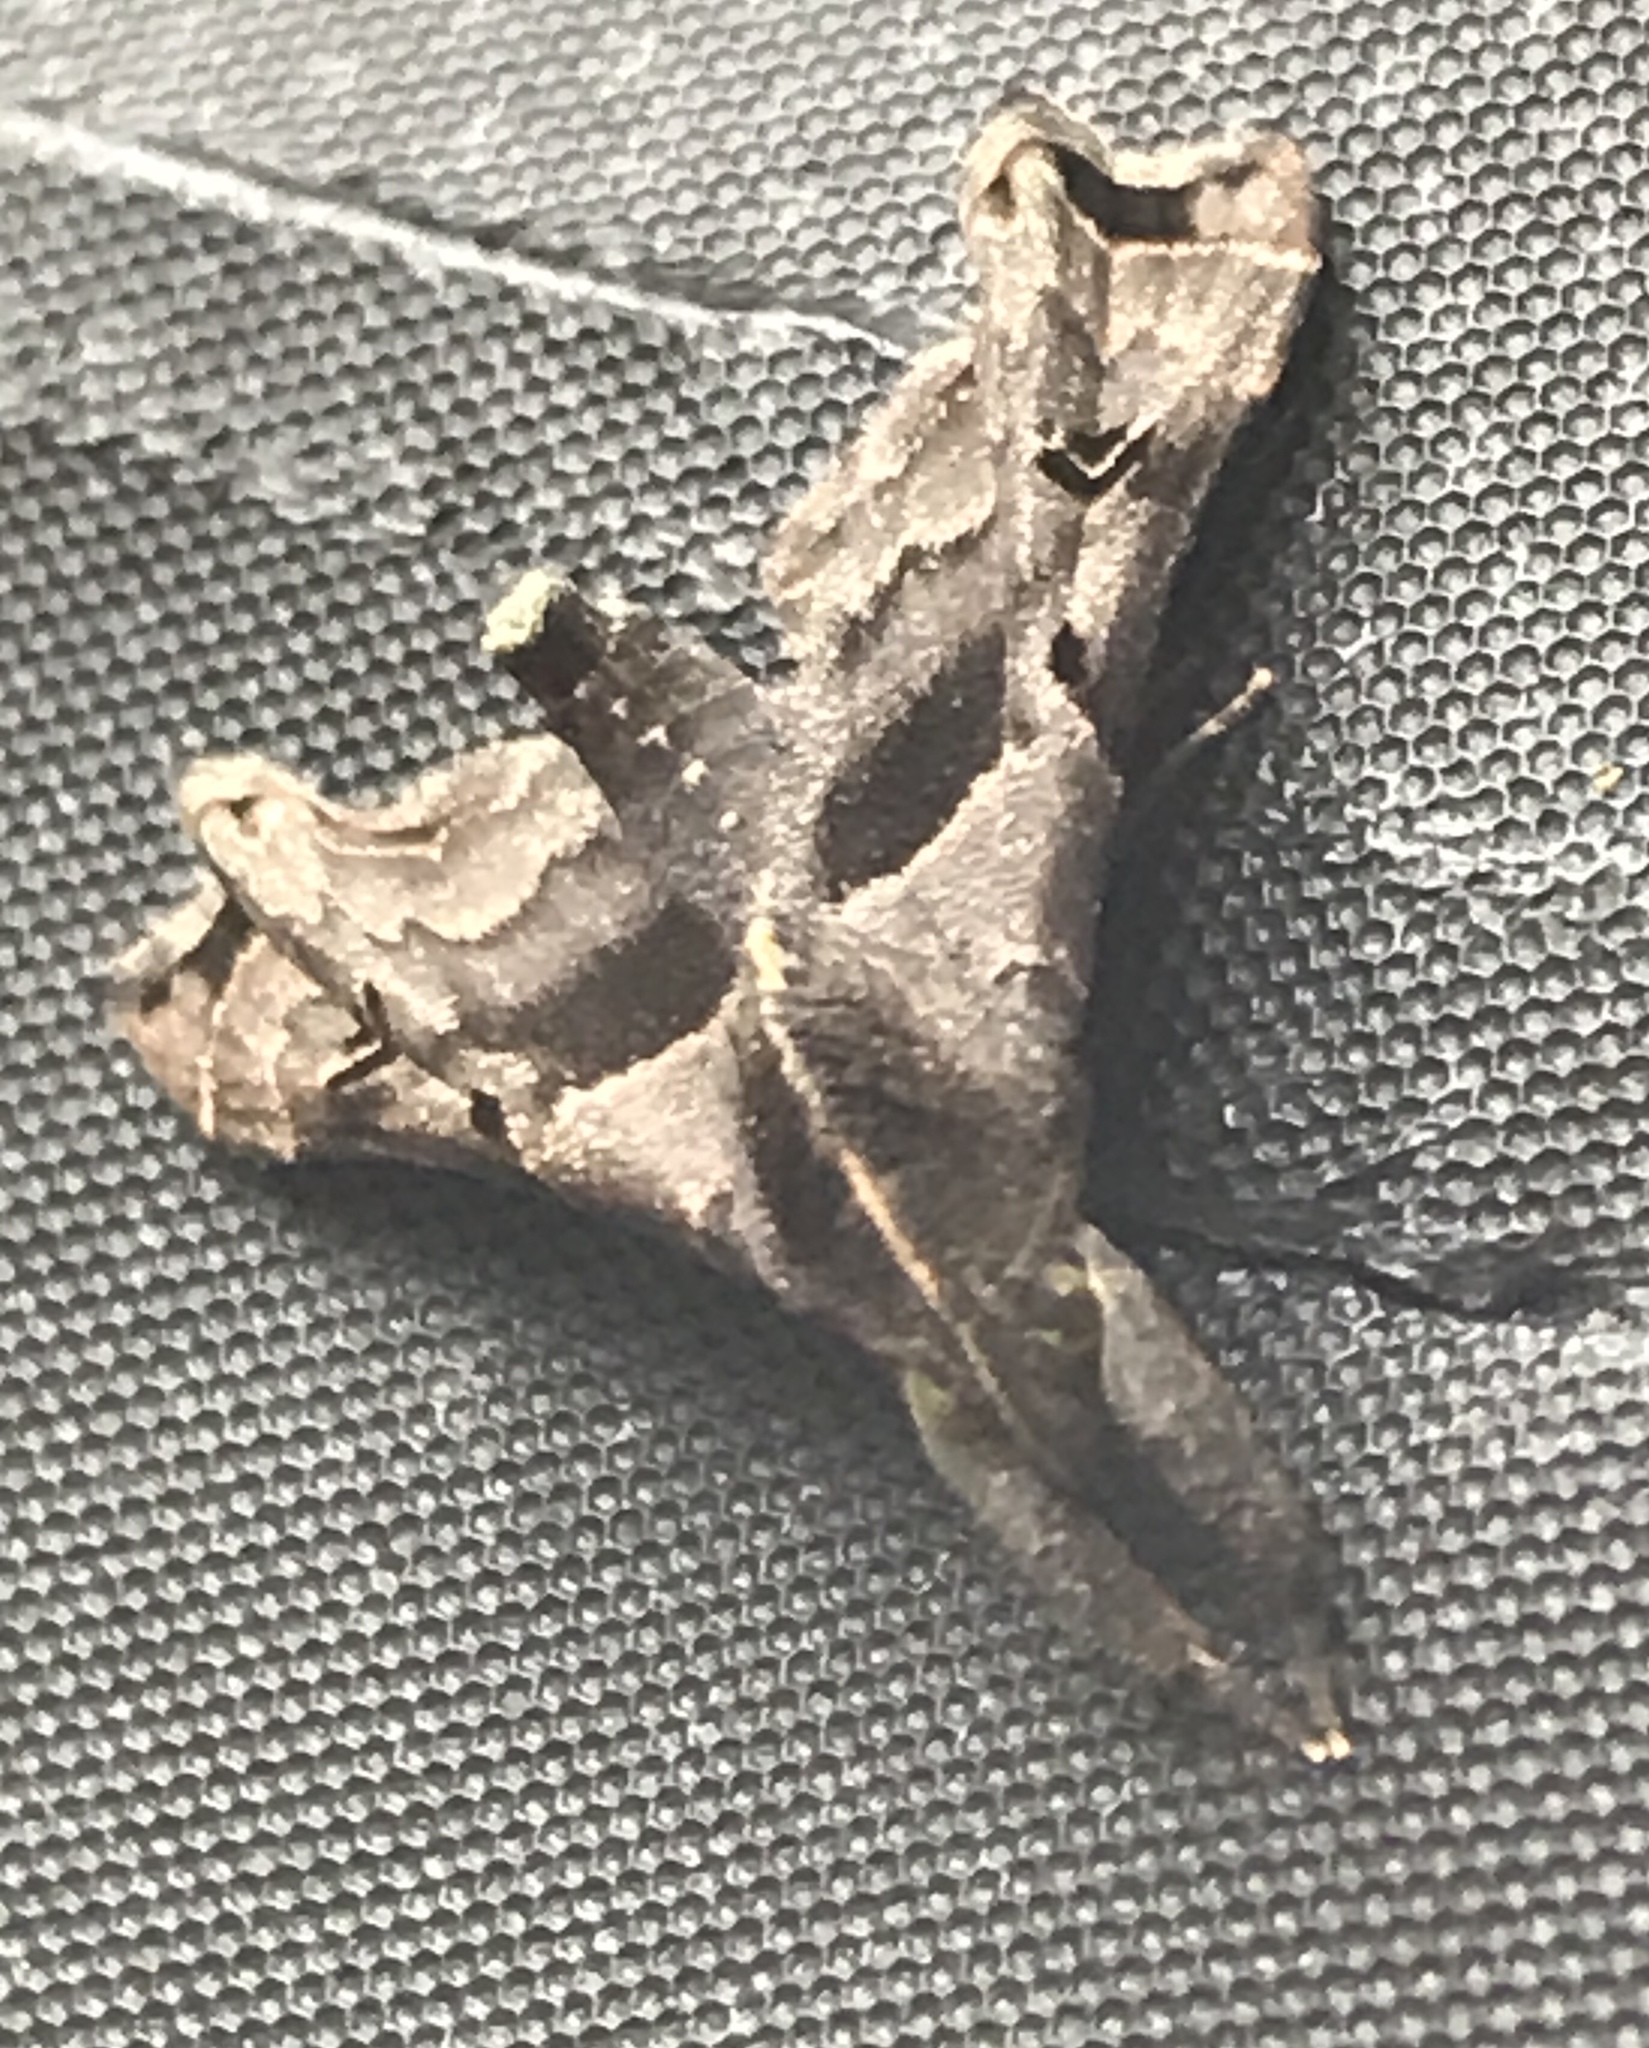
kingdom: Animalia
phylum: Arthropoda
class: Insecta
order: Lepidoptera
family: Erebidae
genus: Palthis
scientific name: Palthis asopialis
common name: Faint-spotted palthis moth
